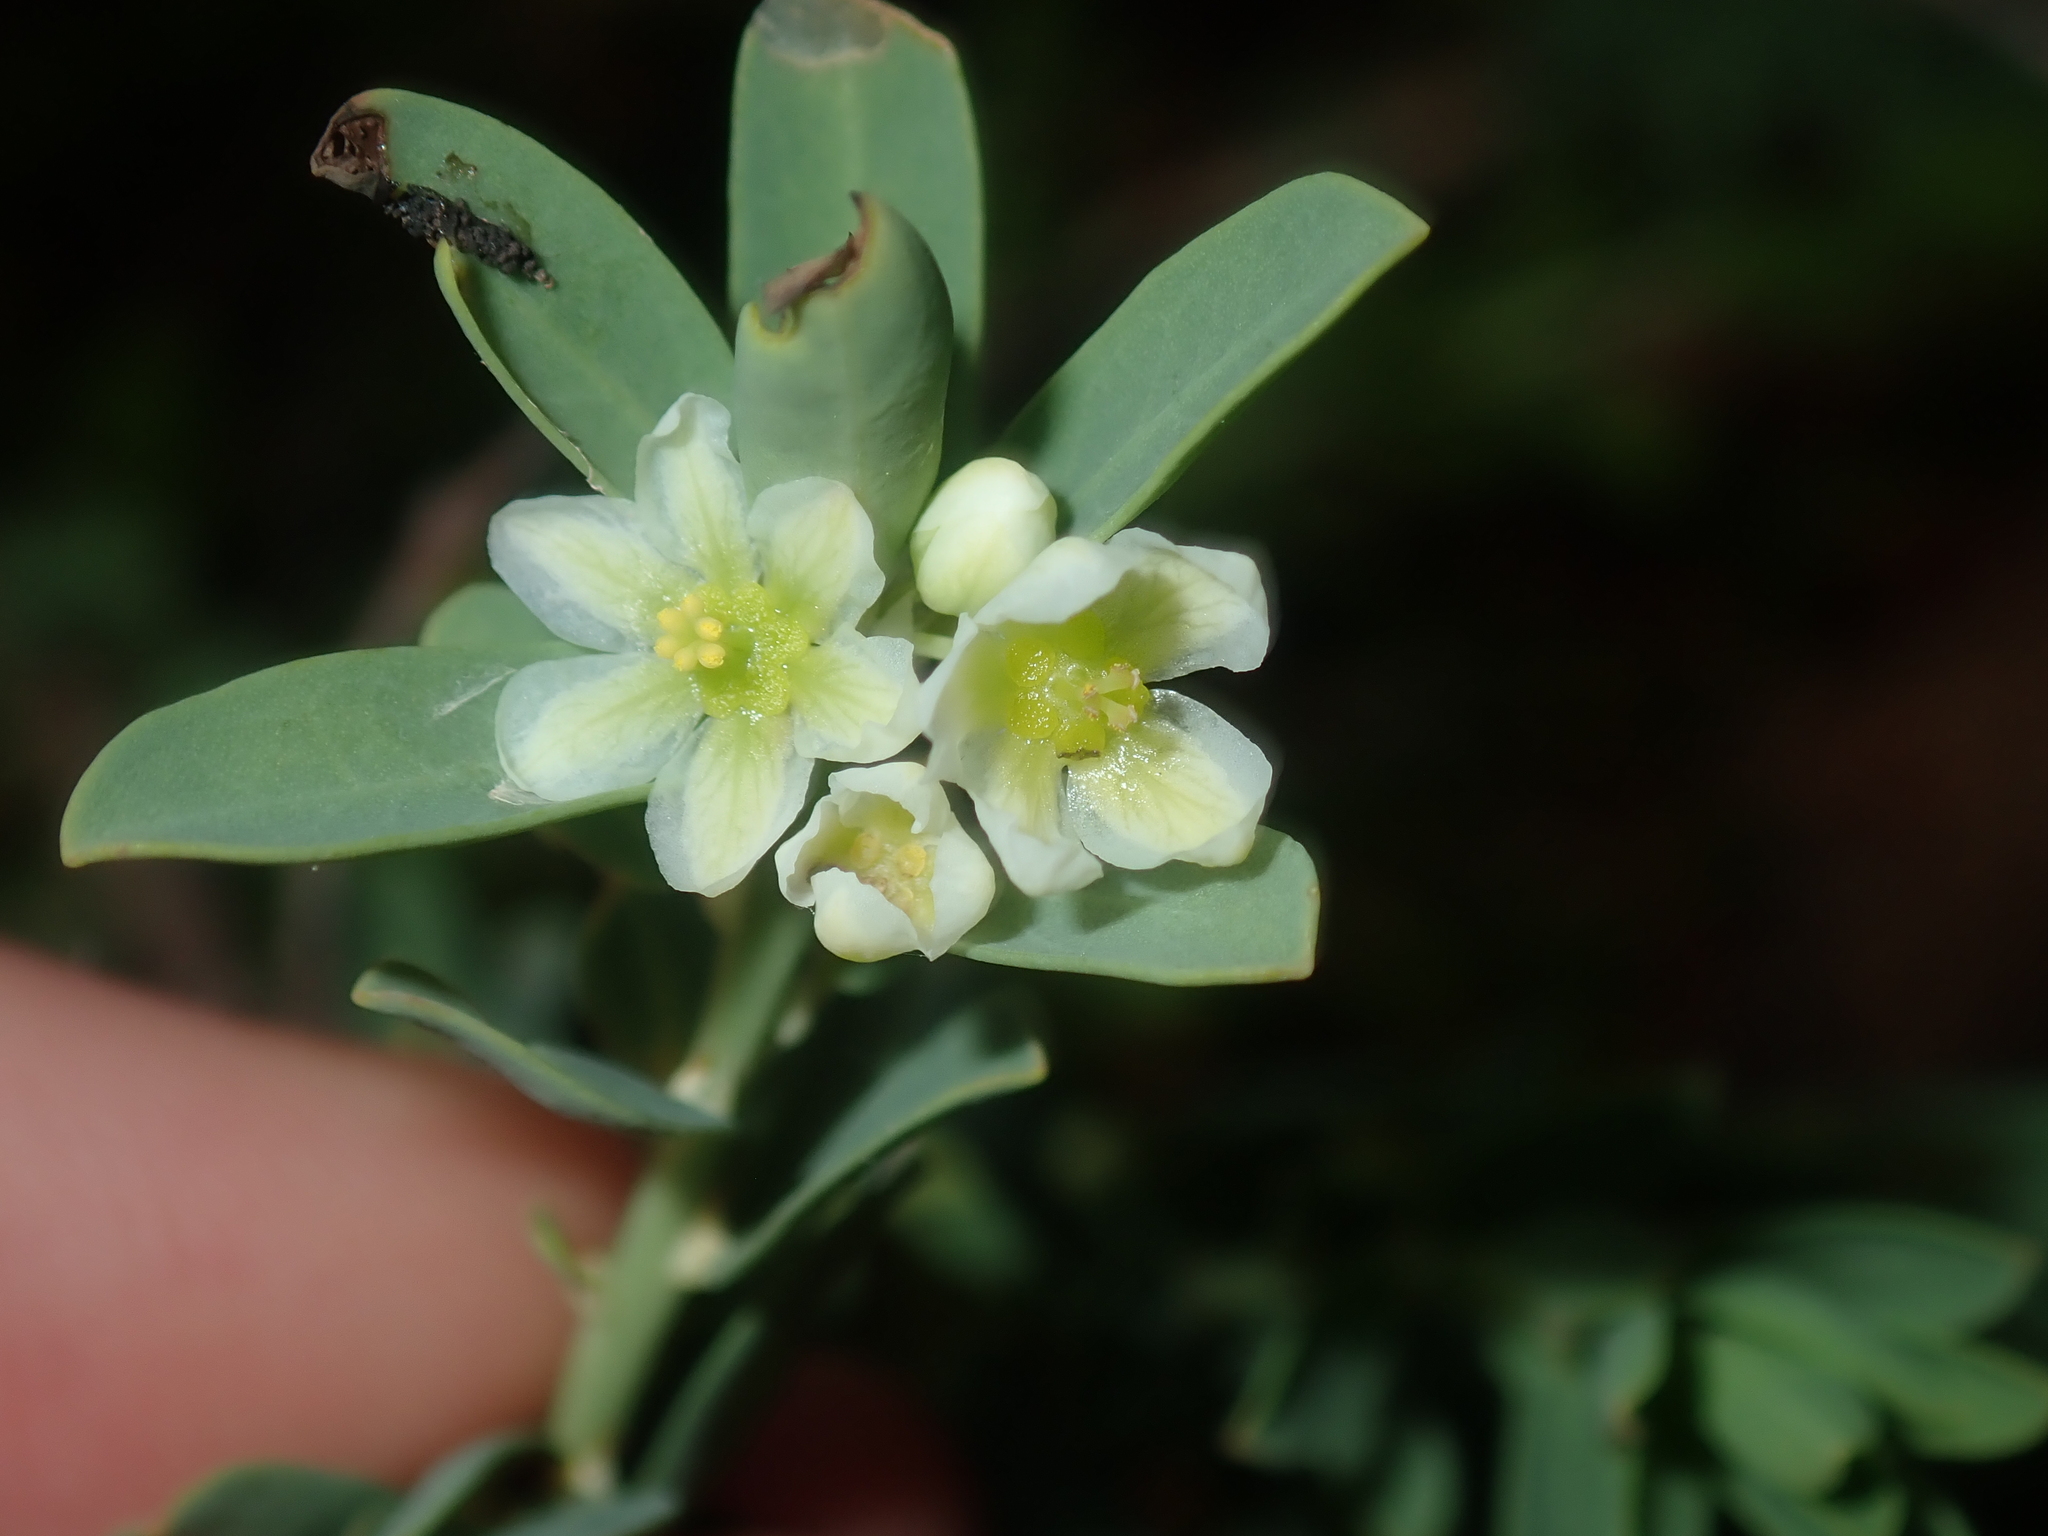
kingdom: Plantae
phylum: Tracheophyta
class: Magnoliopsida
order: Malpighiales
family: Phyllanthaceae
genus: Phyllanthus
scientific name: Phyllanthus calycinus
